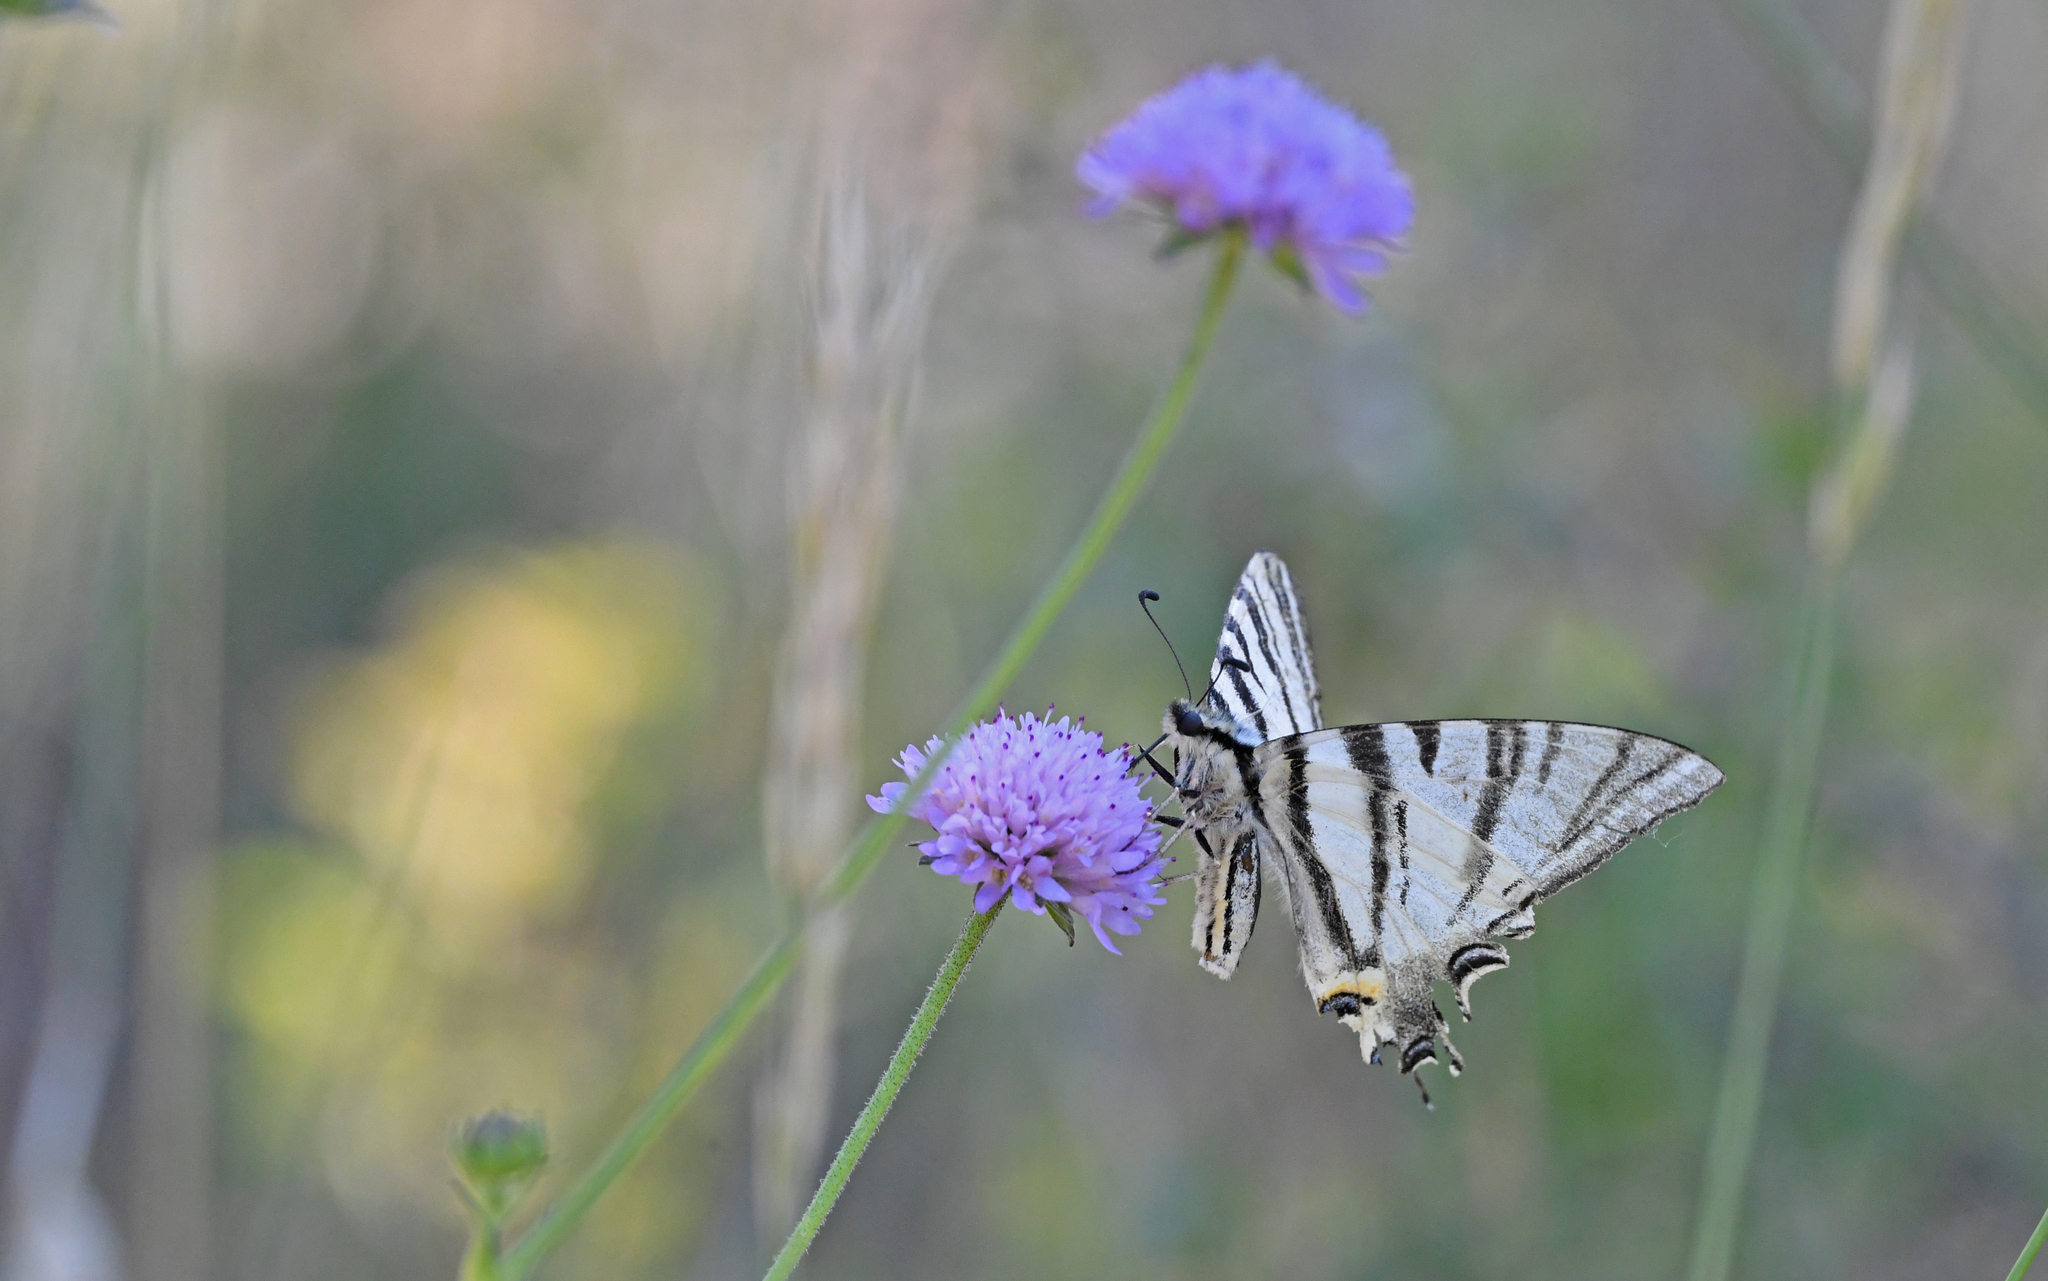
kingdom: Animalia
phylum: Arthropoda
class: Insecta
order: Lepidoptera
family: Papilionidae
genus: Iphiclides
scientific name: Iphiclides podalirius
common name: Scarce swallowtail
